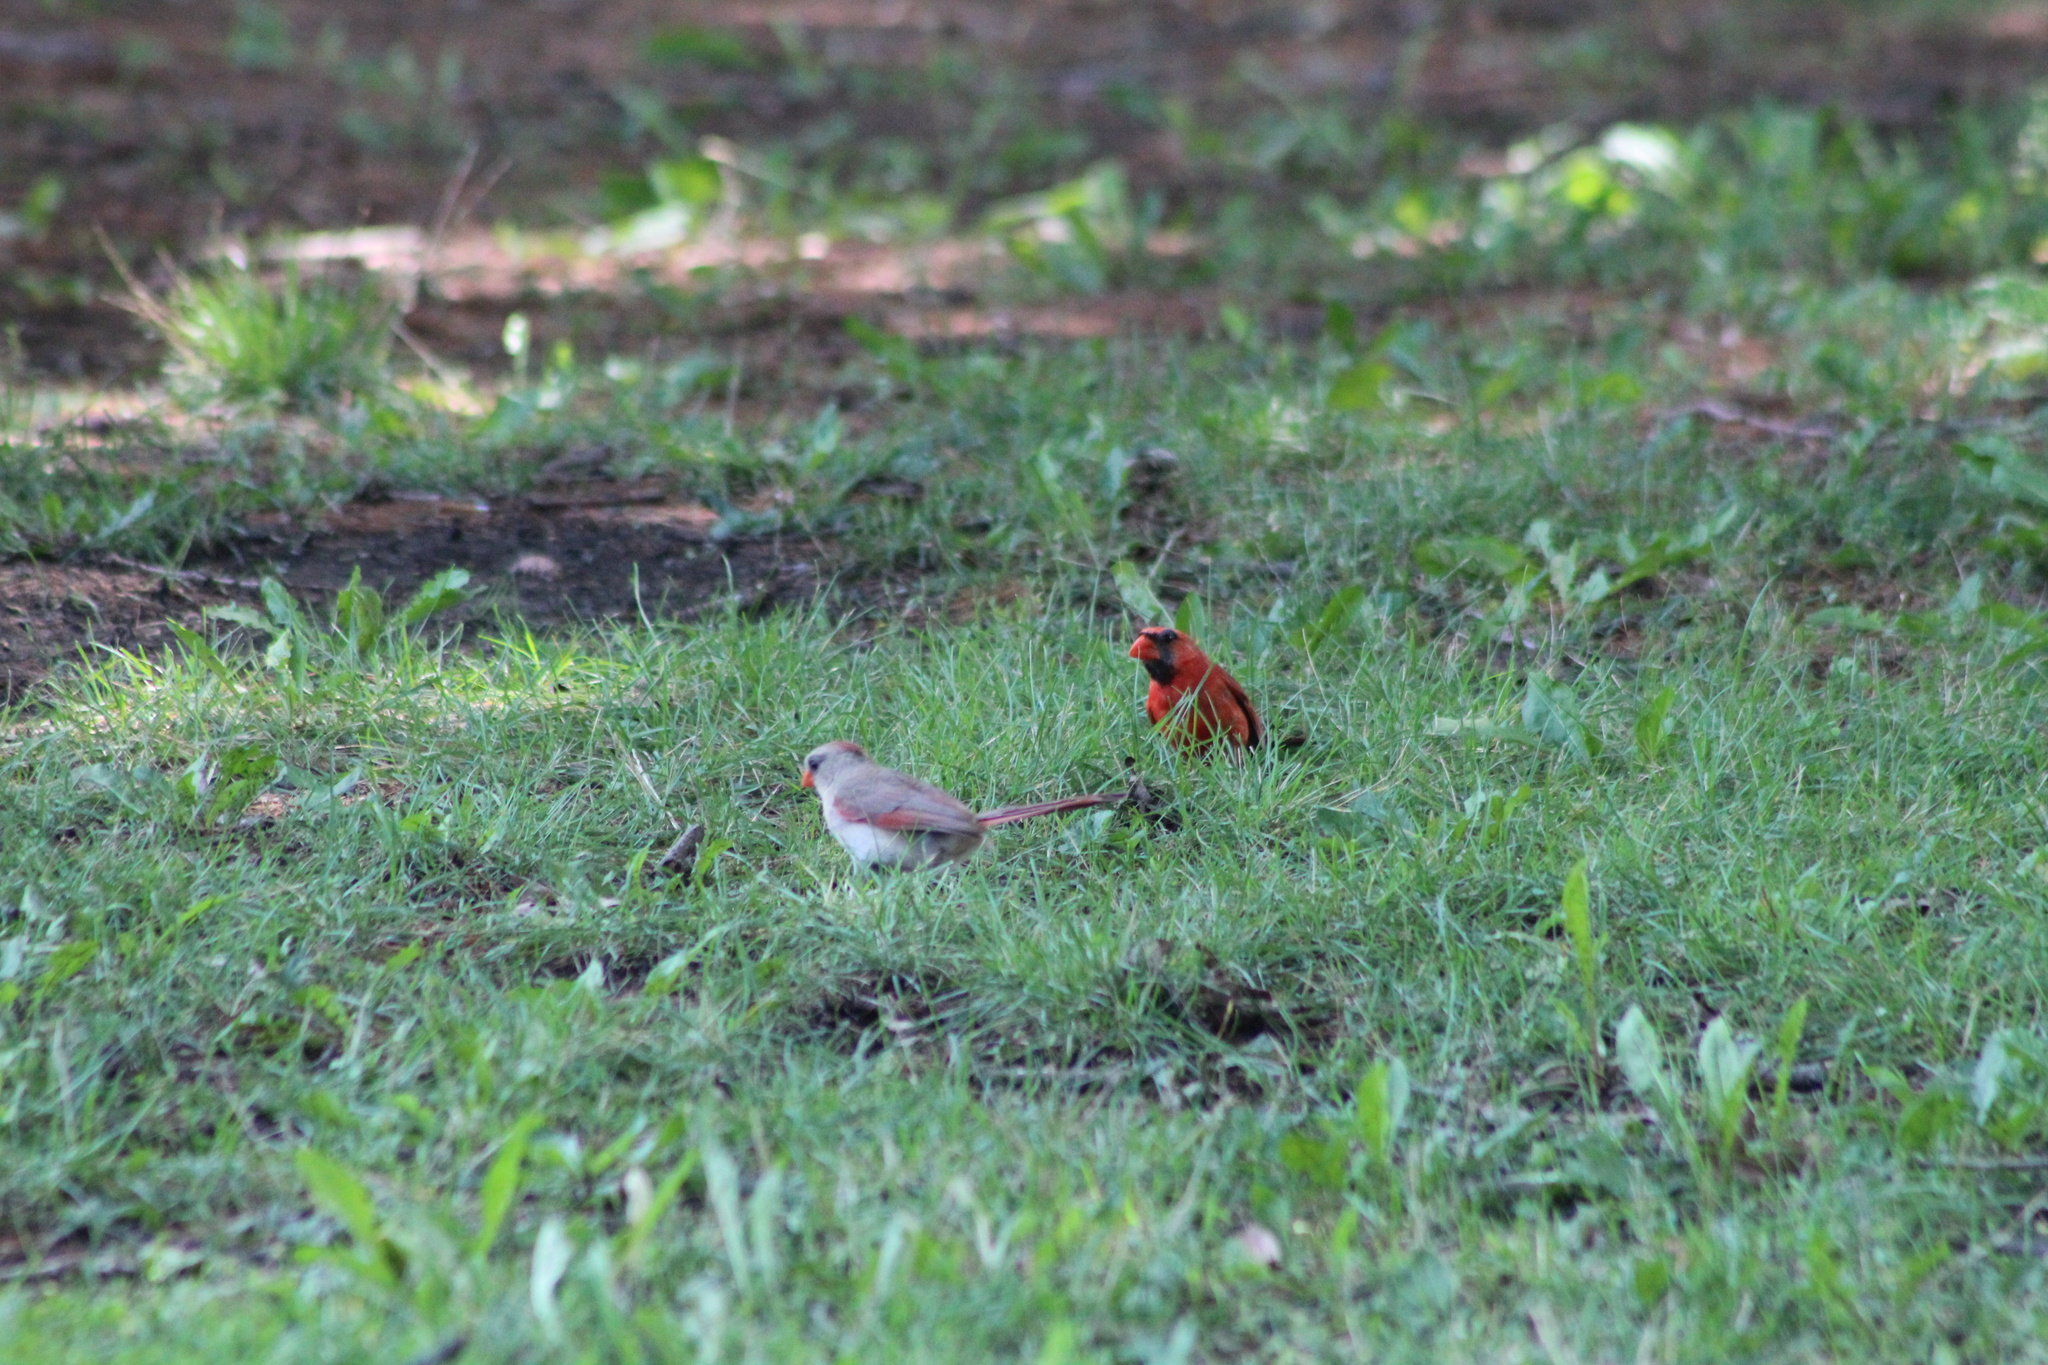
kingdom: Animalia
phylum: Chordata
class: Aves
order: Passeriformes
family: Cardinalidae
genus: Cardinalis
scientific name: Cardinalis cardinalis
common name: Northern cardinal
